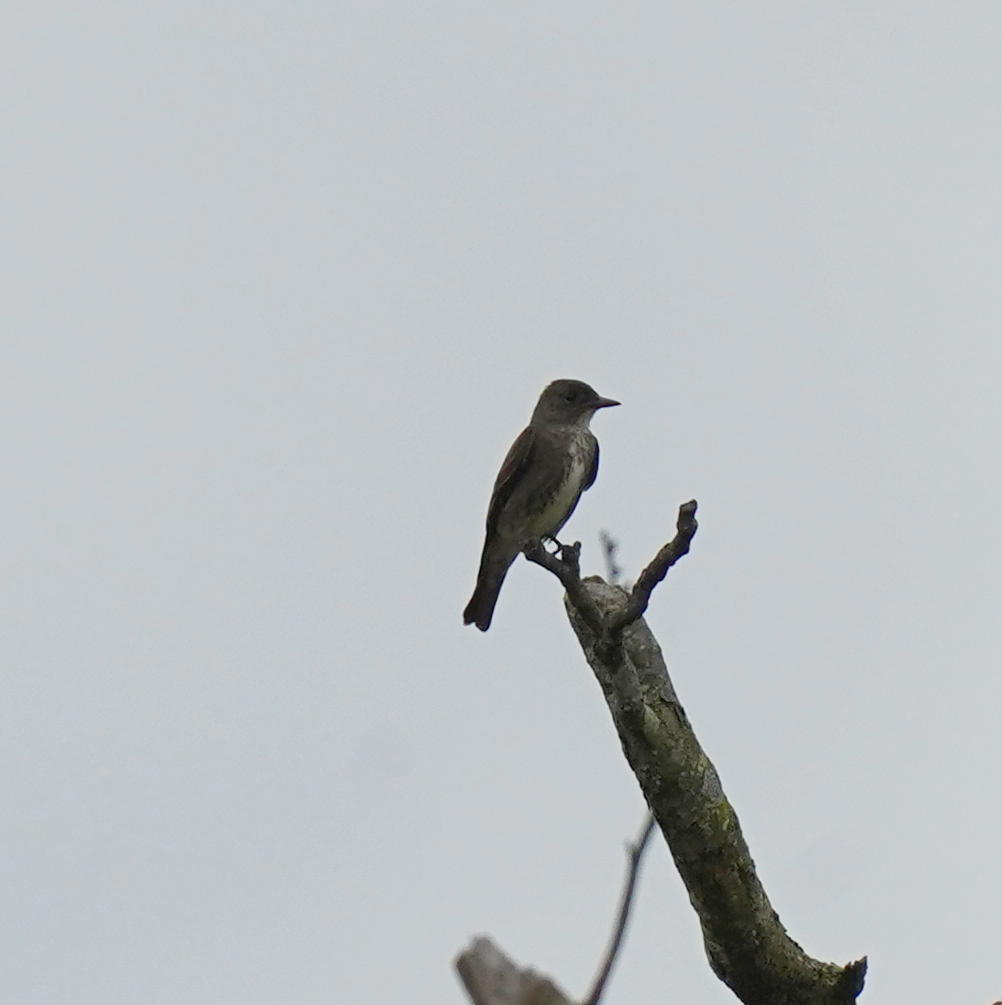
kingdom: Animalia
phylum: Chordata
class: Aves
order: Passeriformes
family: Tyrannidae
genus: Contopus
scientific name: Contopus cooperi
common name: Olive-sided flycatcher
